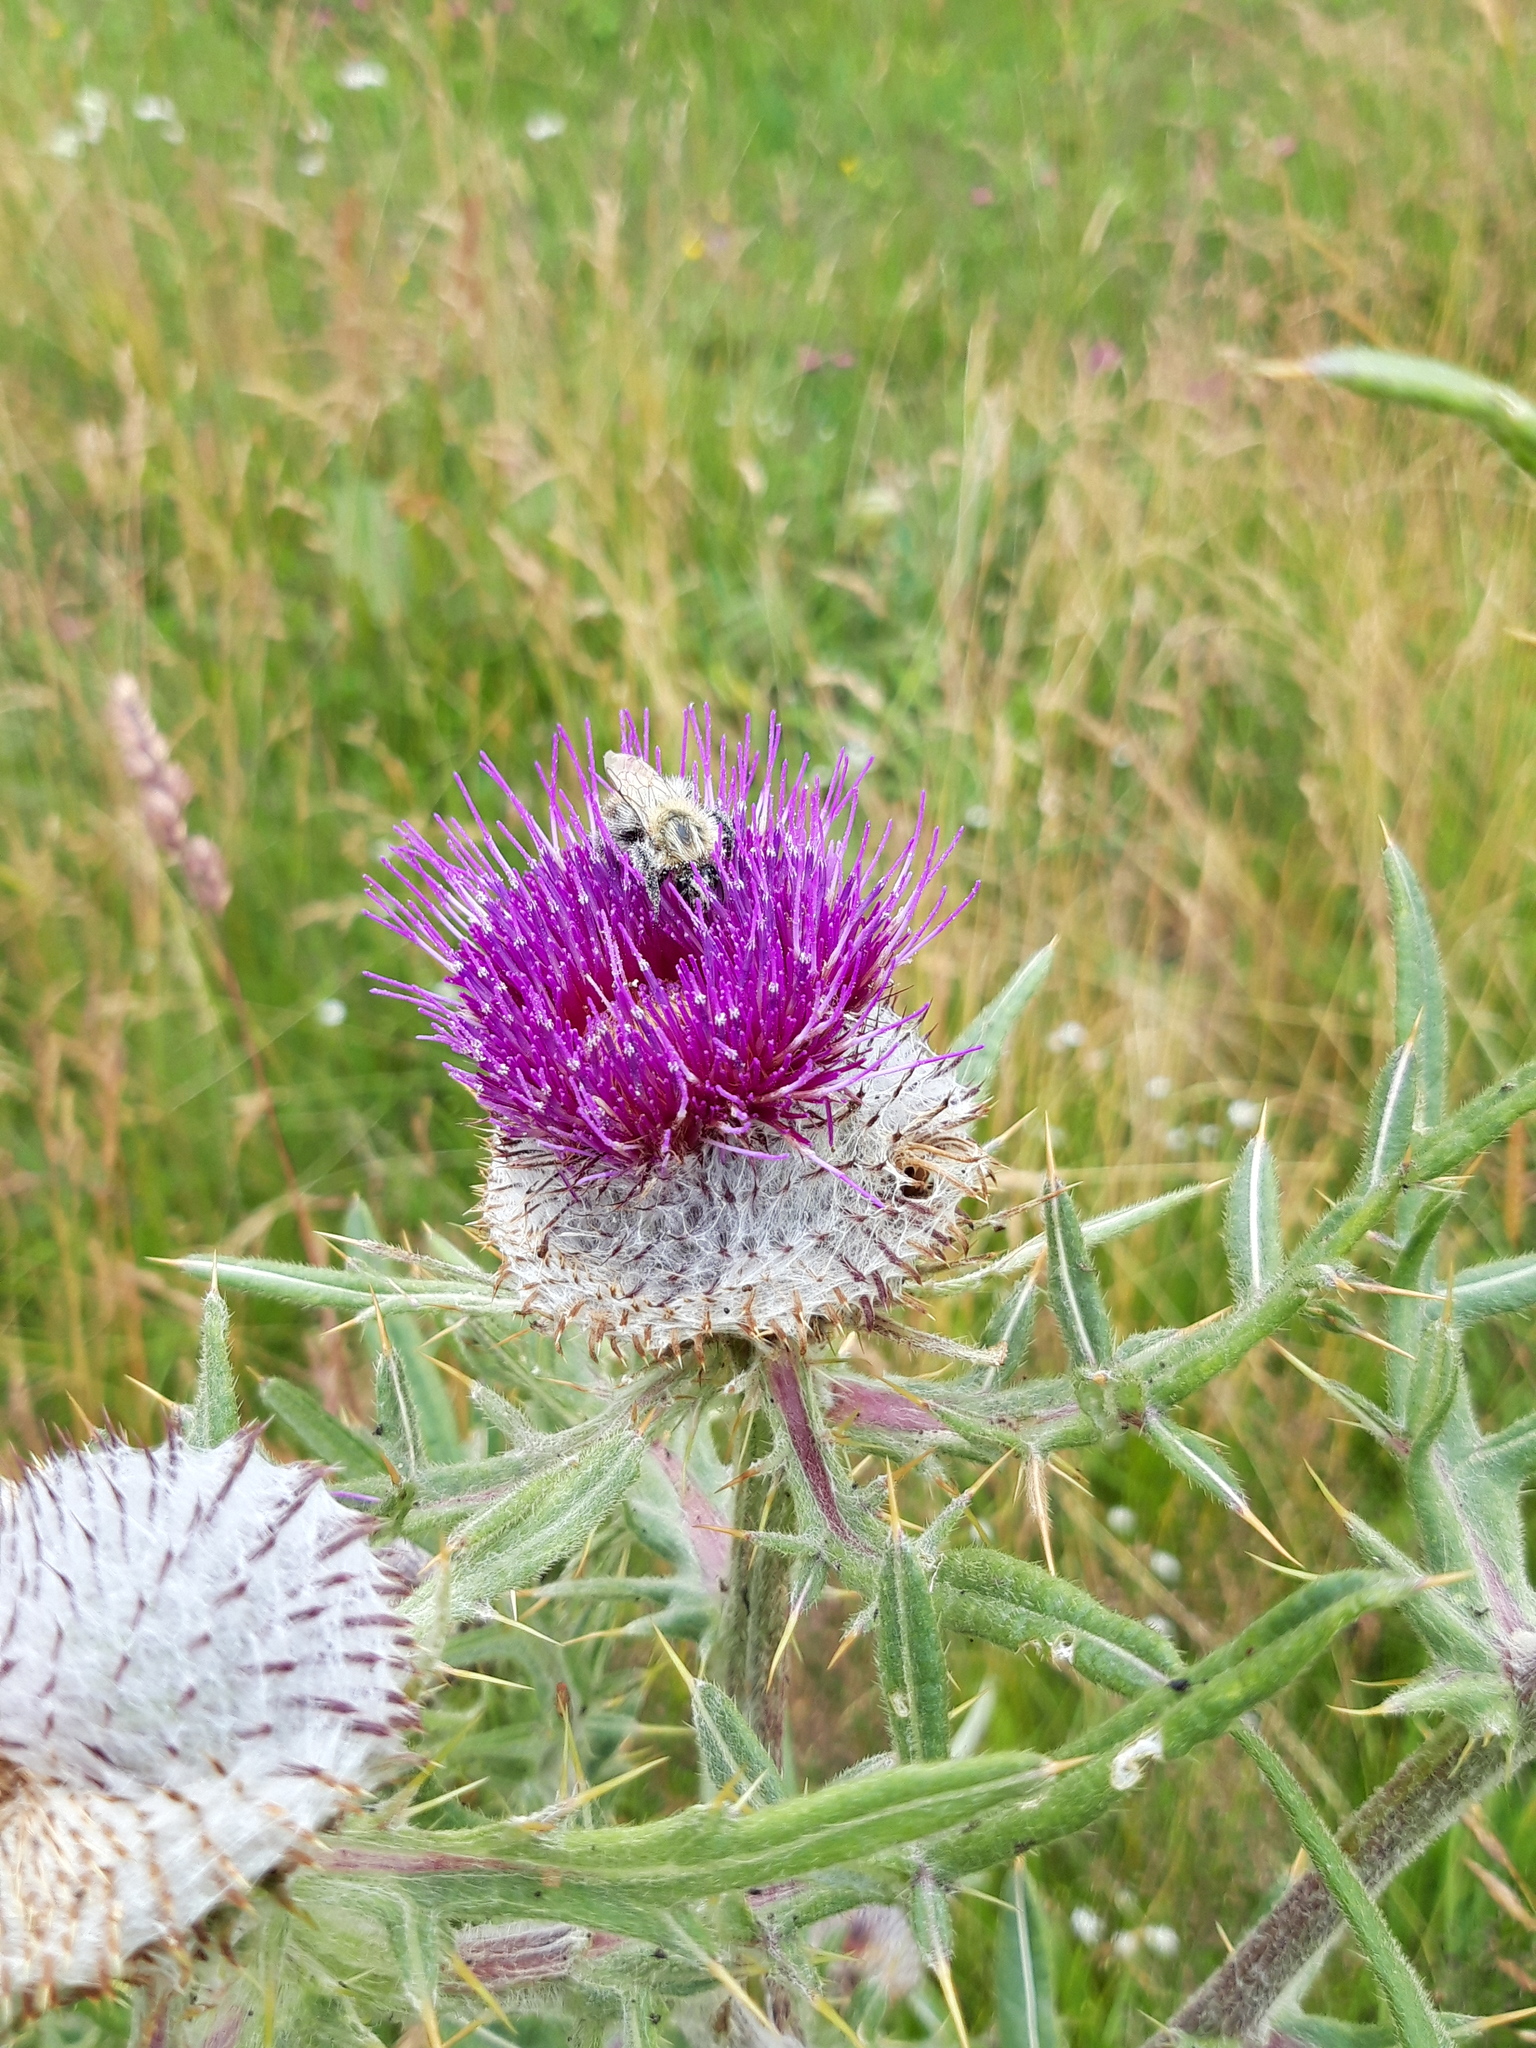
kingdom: Plantae
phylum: Tracheophyta
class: Magnoliopsida
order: Asterales
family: Asteraceae
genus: Lophiolepis
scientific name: Lophiolepis eriophora
